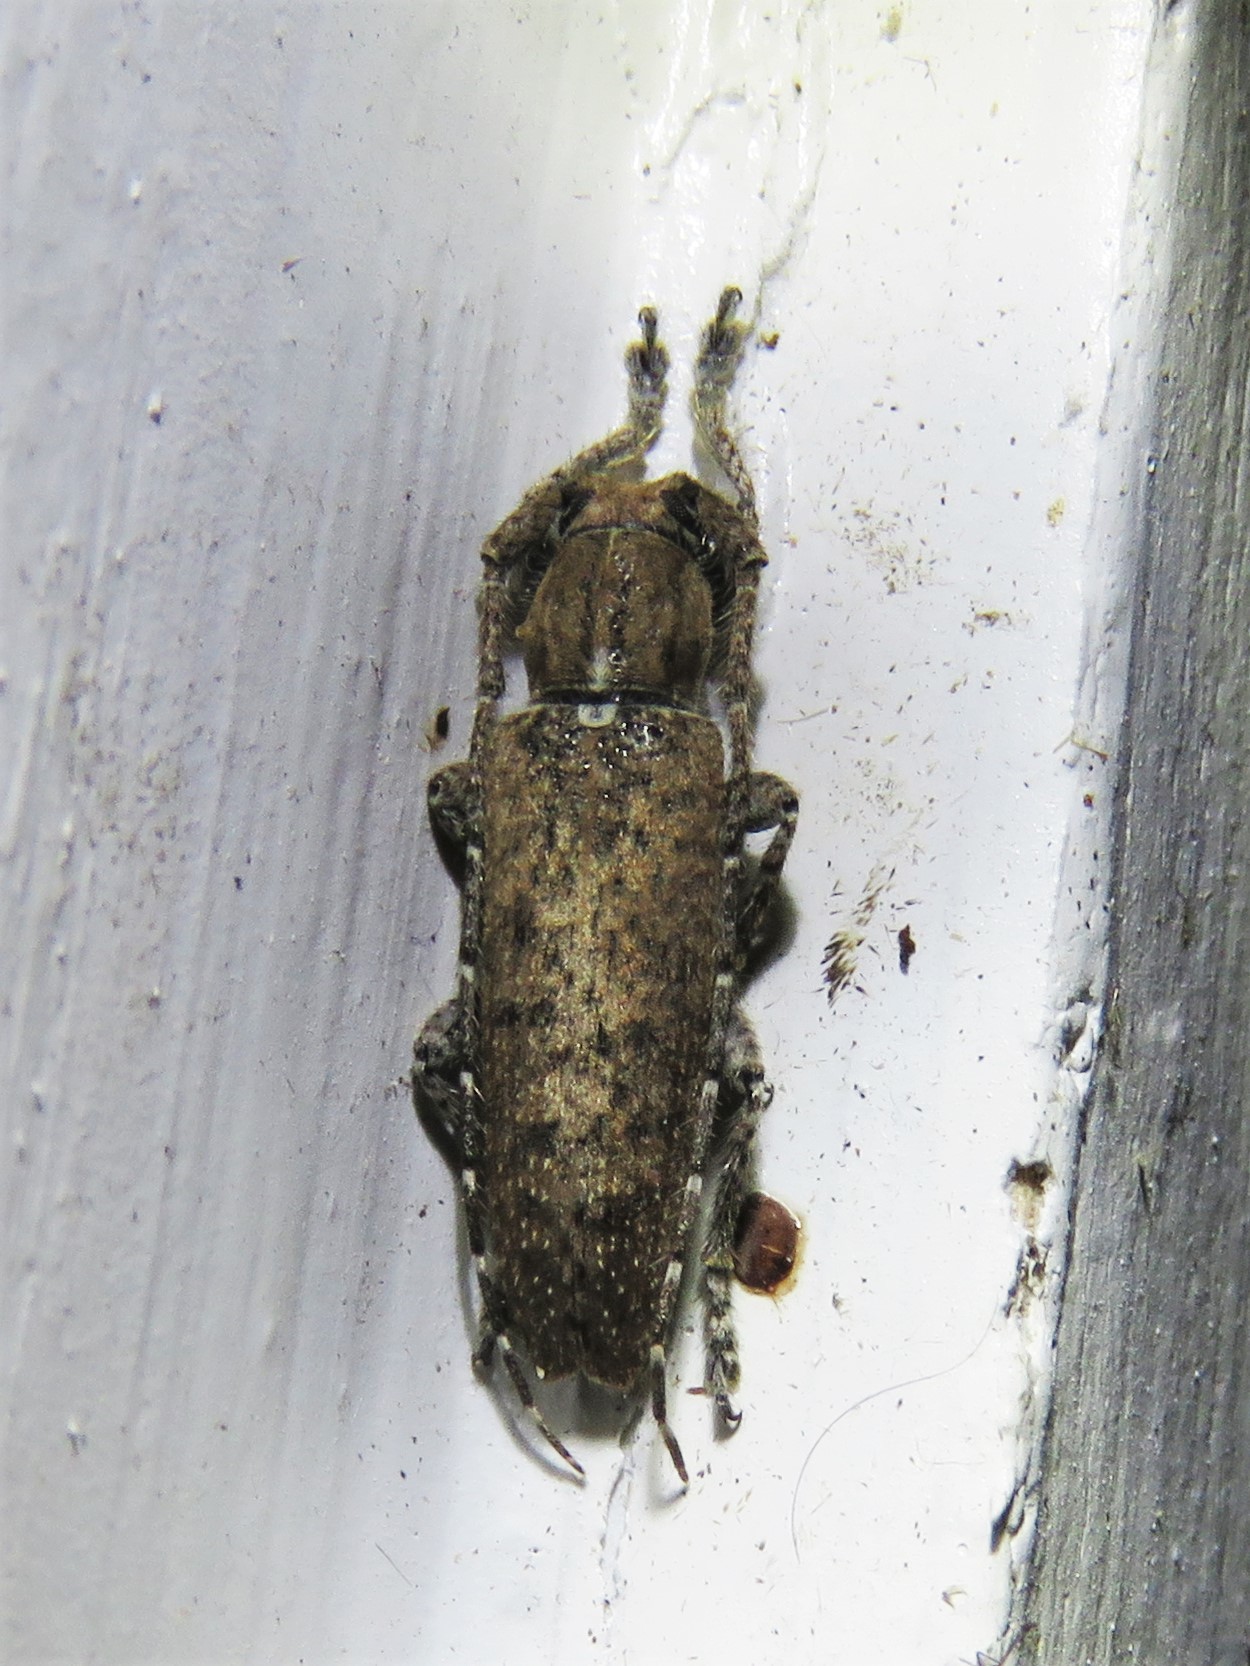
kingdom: Animalia
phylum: Arthropoda
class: Insecta
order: Coleoptera
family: Cerambycidae
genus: Ataxia
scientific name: Ataxia crypta
